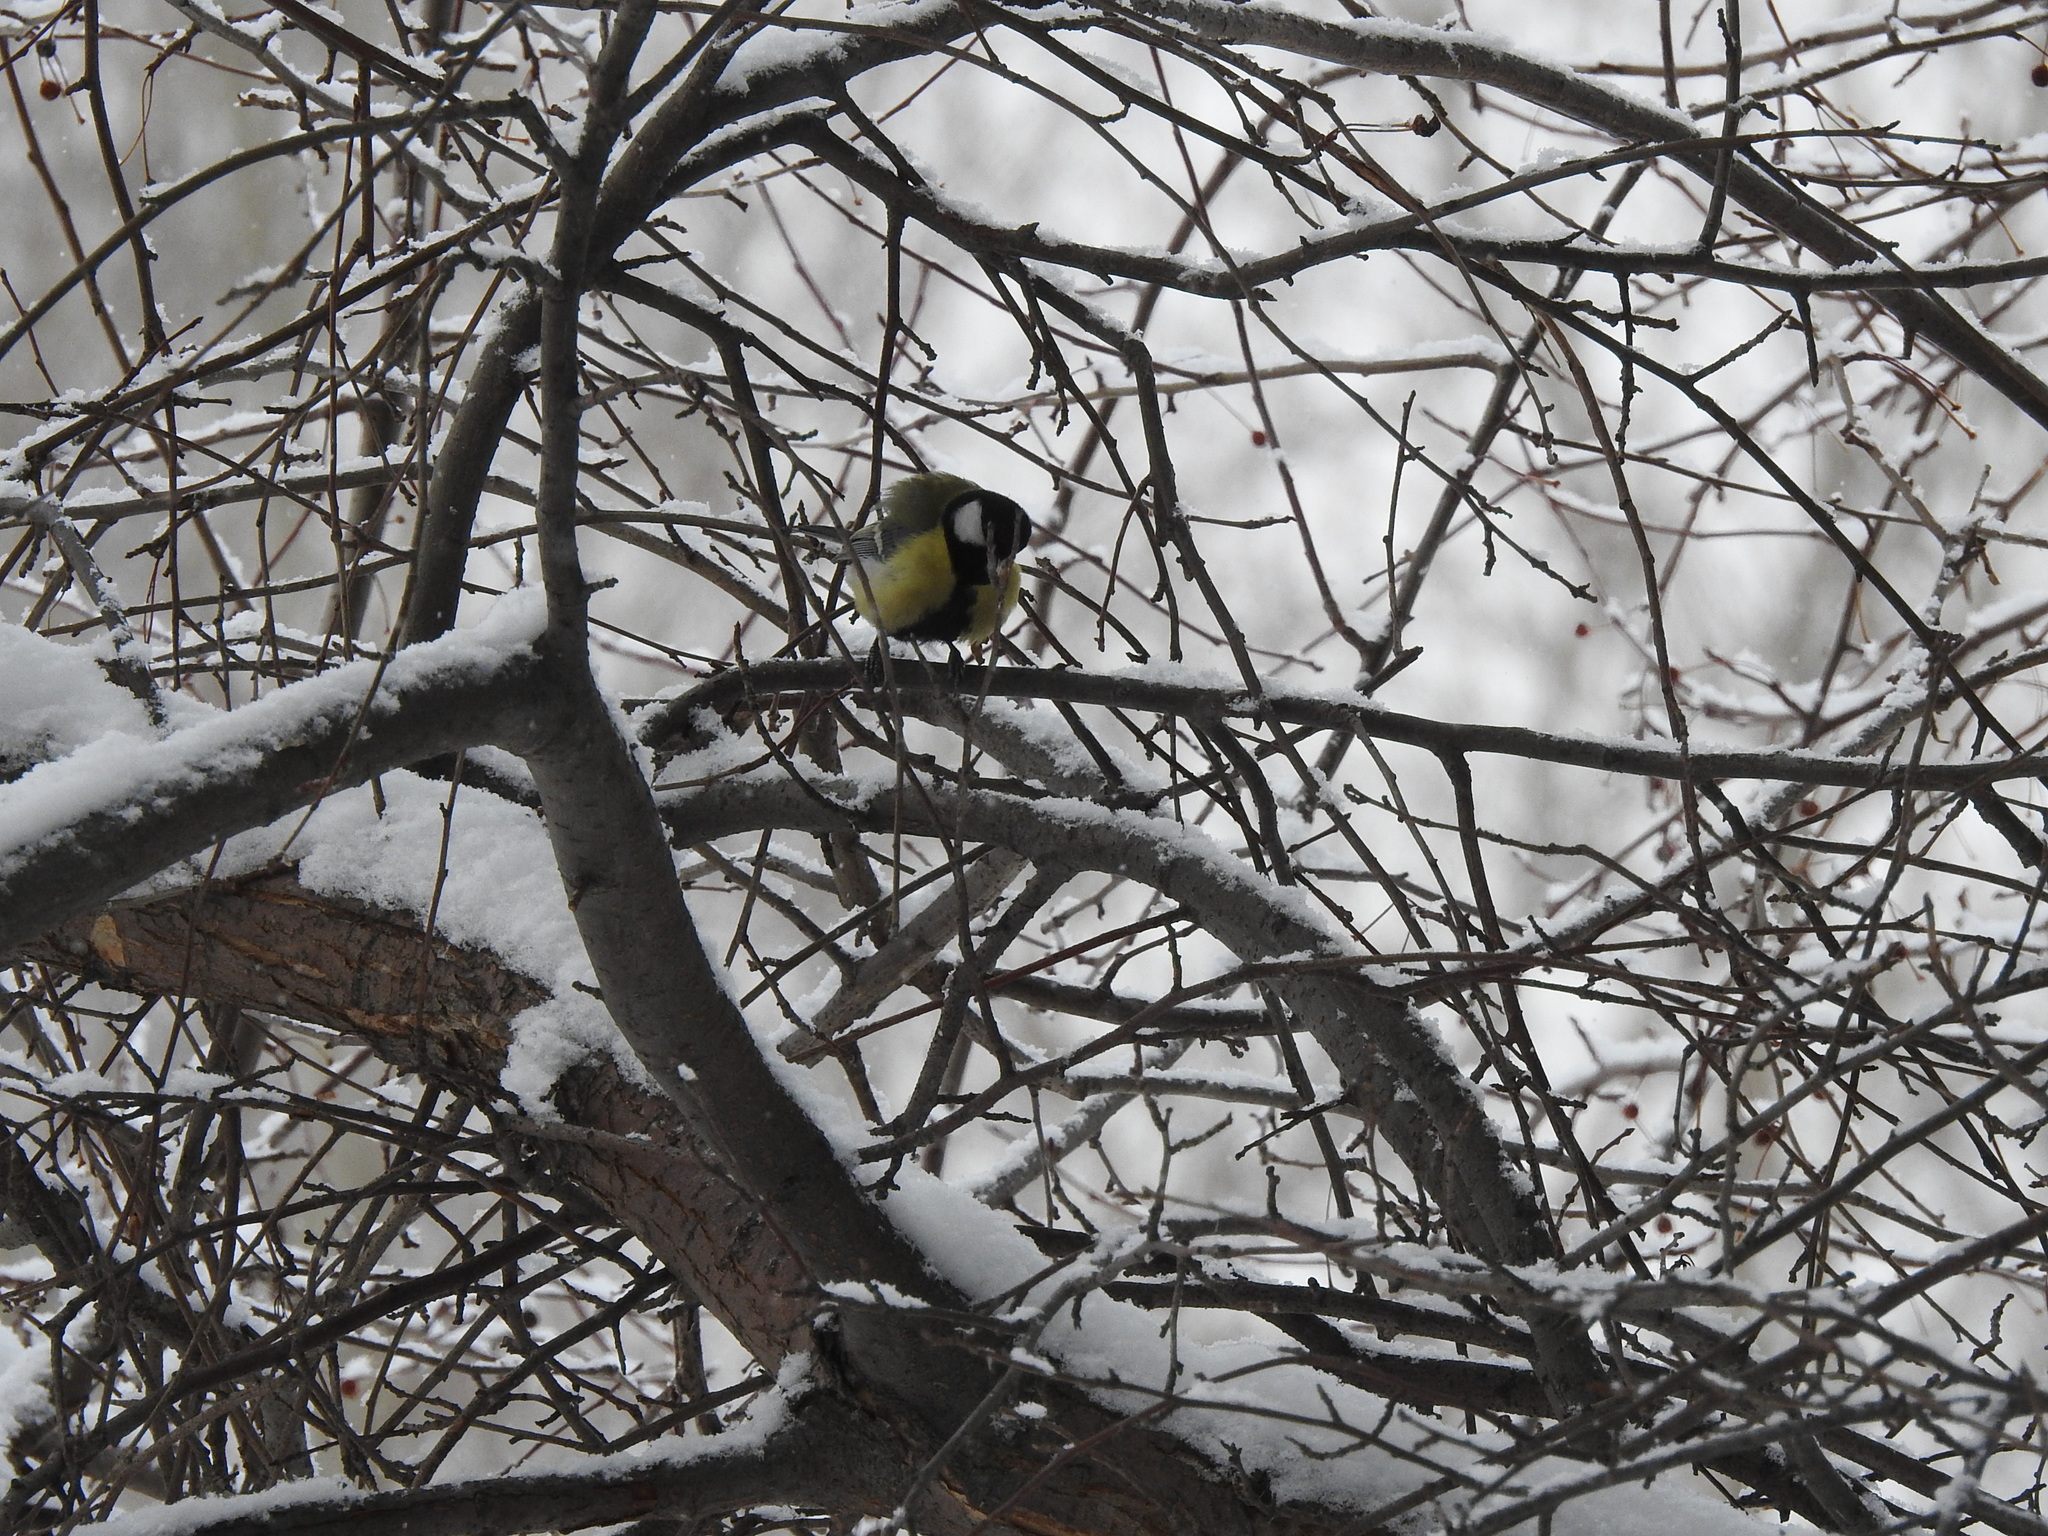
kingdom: Animalia
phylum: Chordata
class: Aves
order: Passeriformes
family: Paridae
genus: Parus
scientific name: Parus major
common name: Great tit
